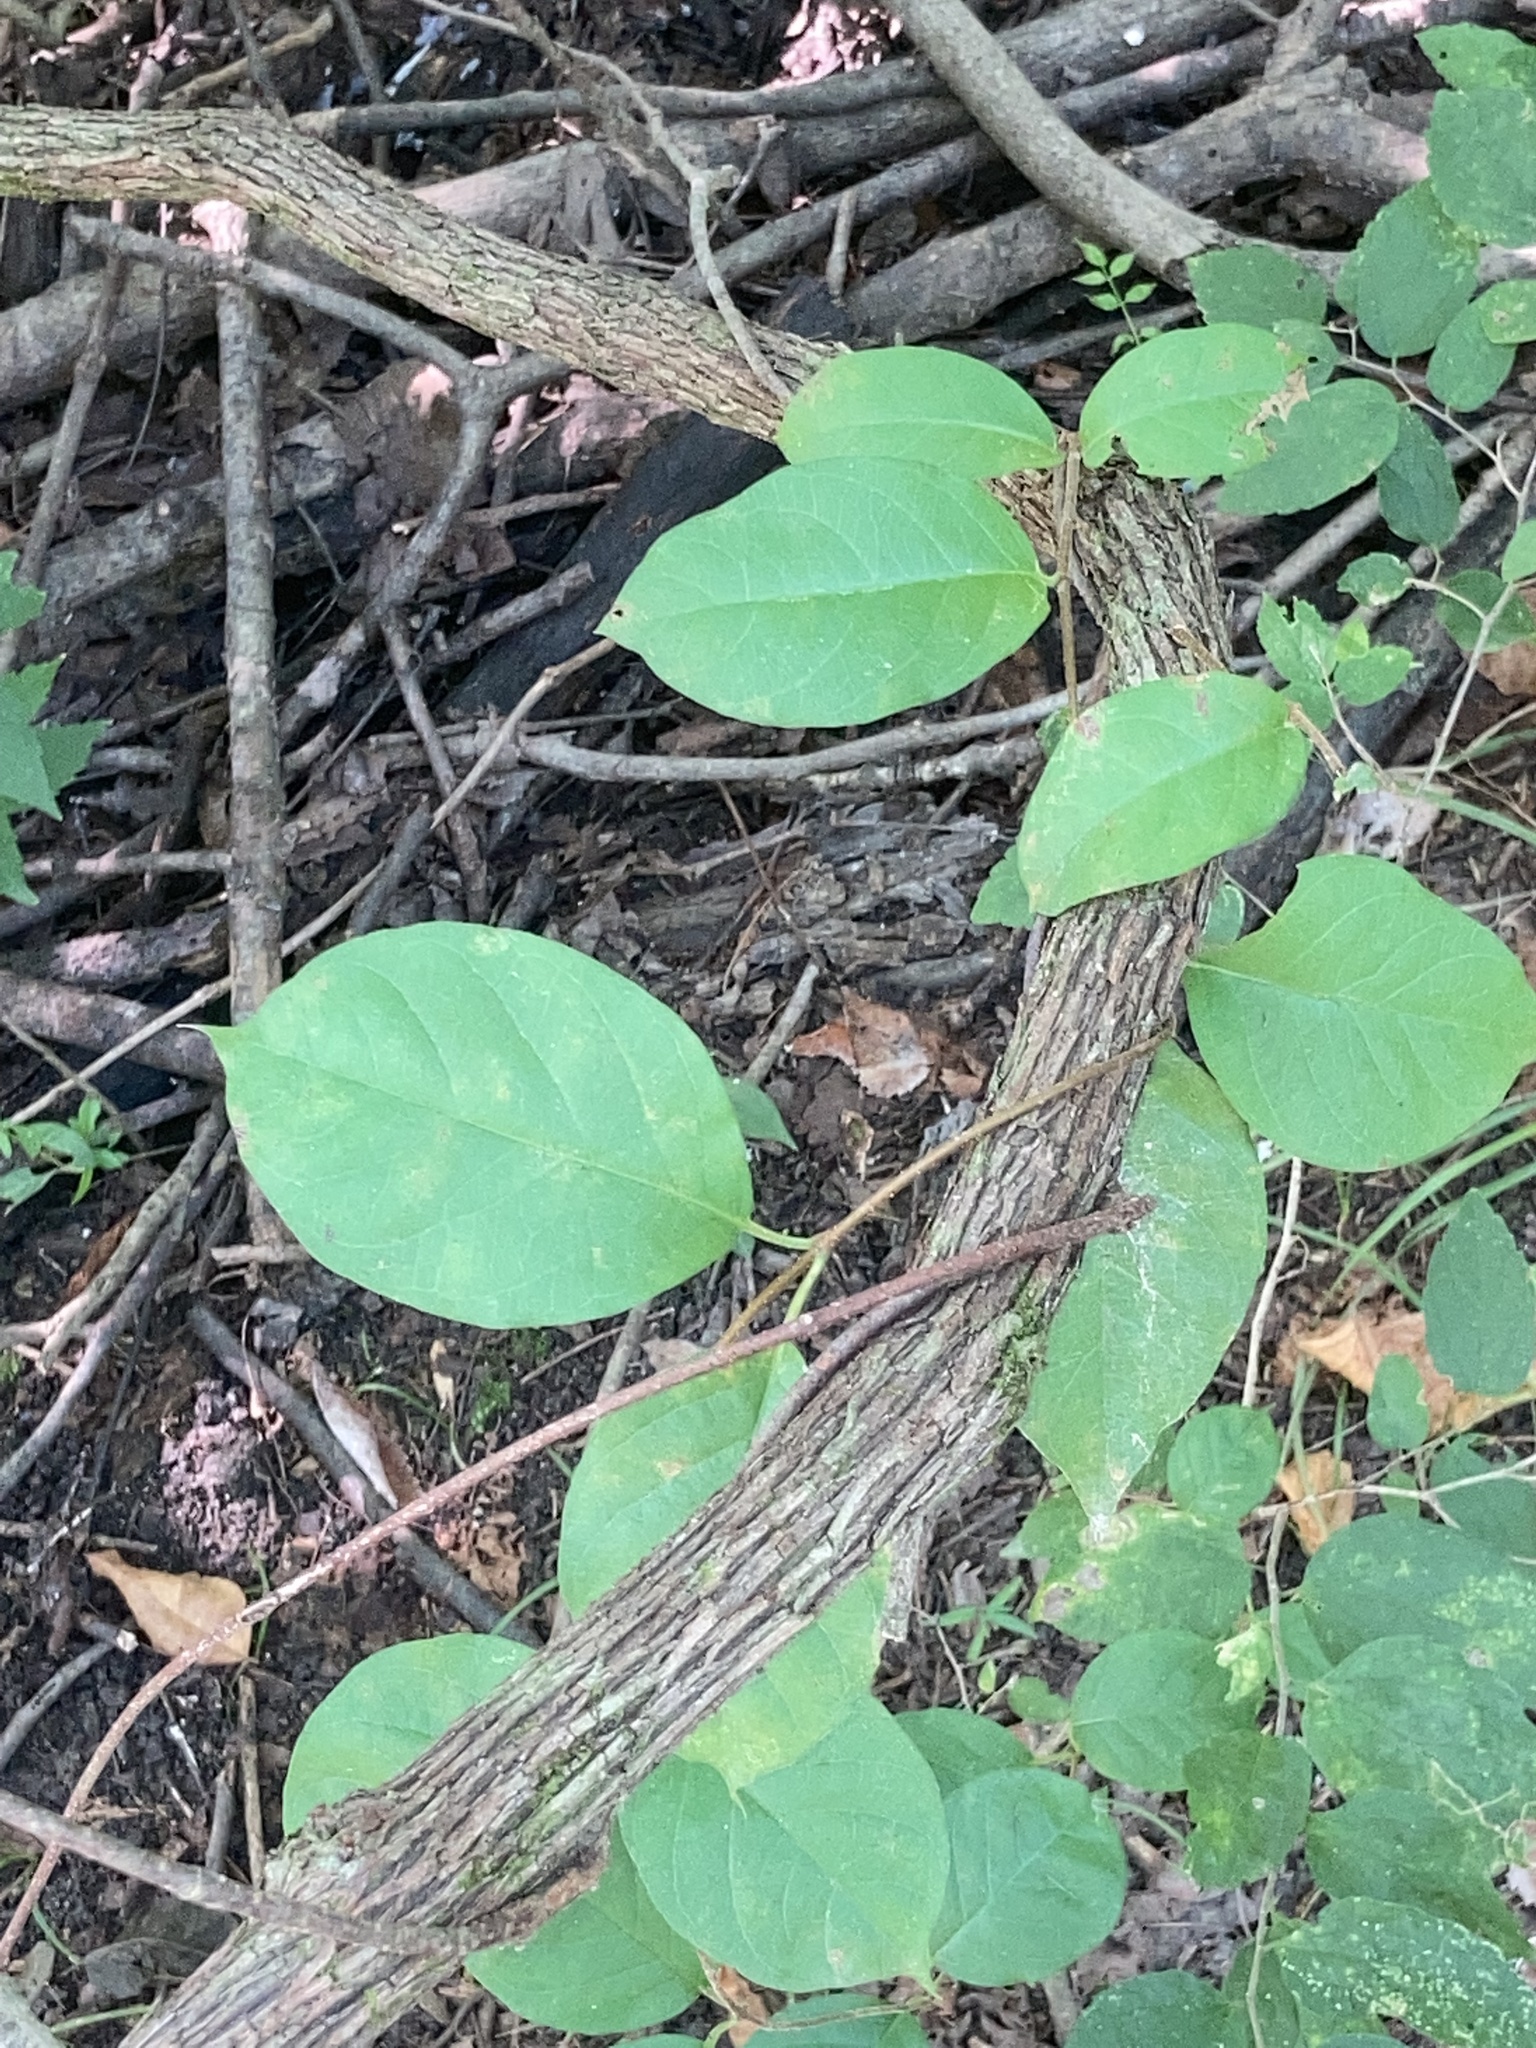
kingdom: Plantae
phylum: Tracheophyta
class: Magnoliopsida
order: Gentianales
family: Apocynaceae
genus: Thyrsanthella
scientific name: Thyrsanthella difformis
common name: Climbing dogbane
